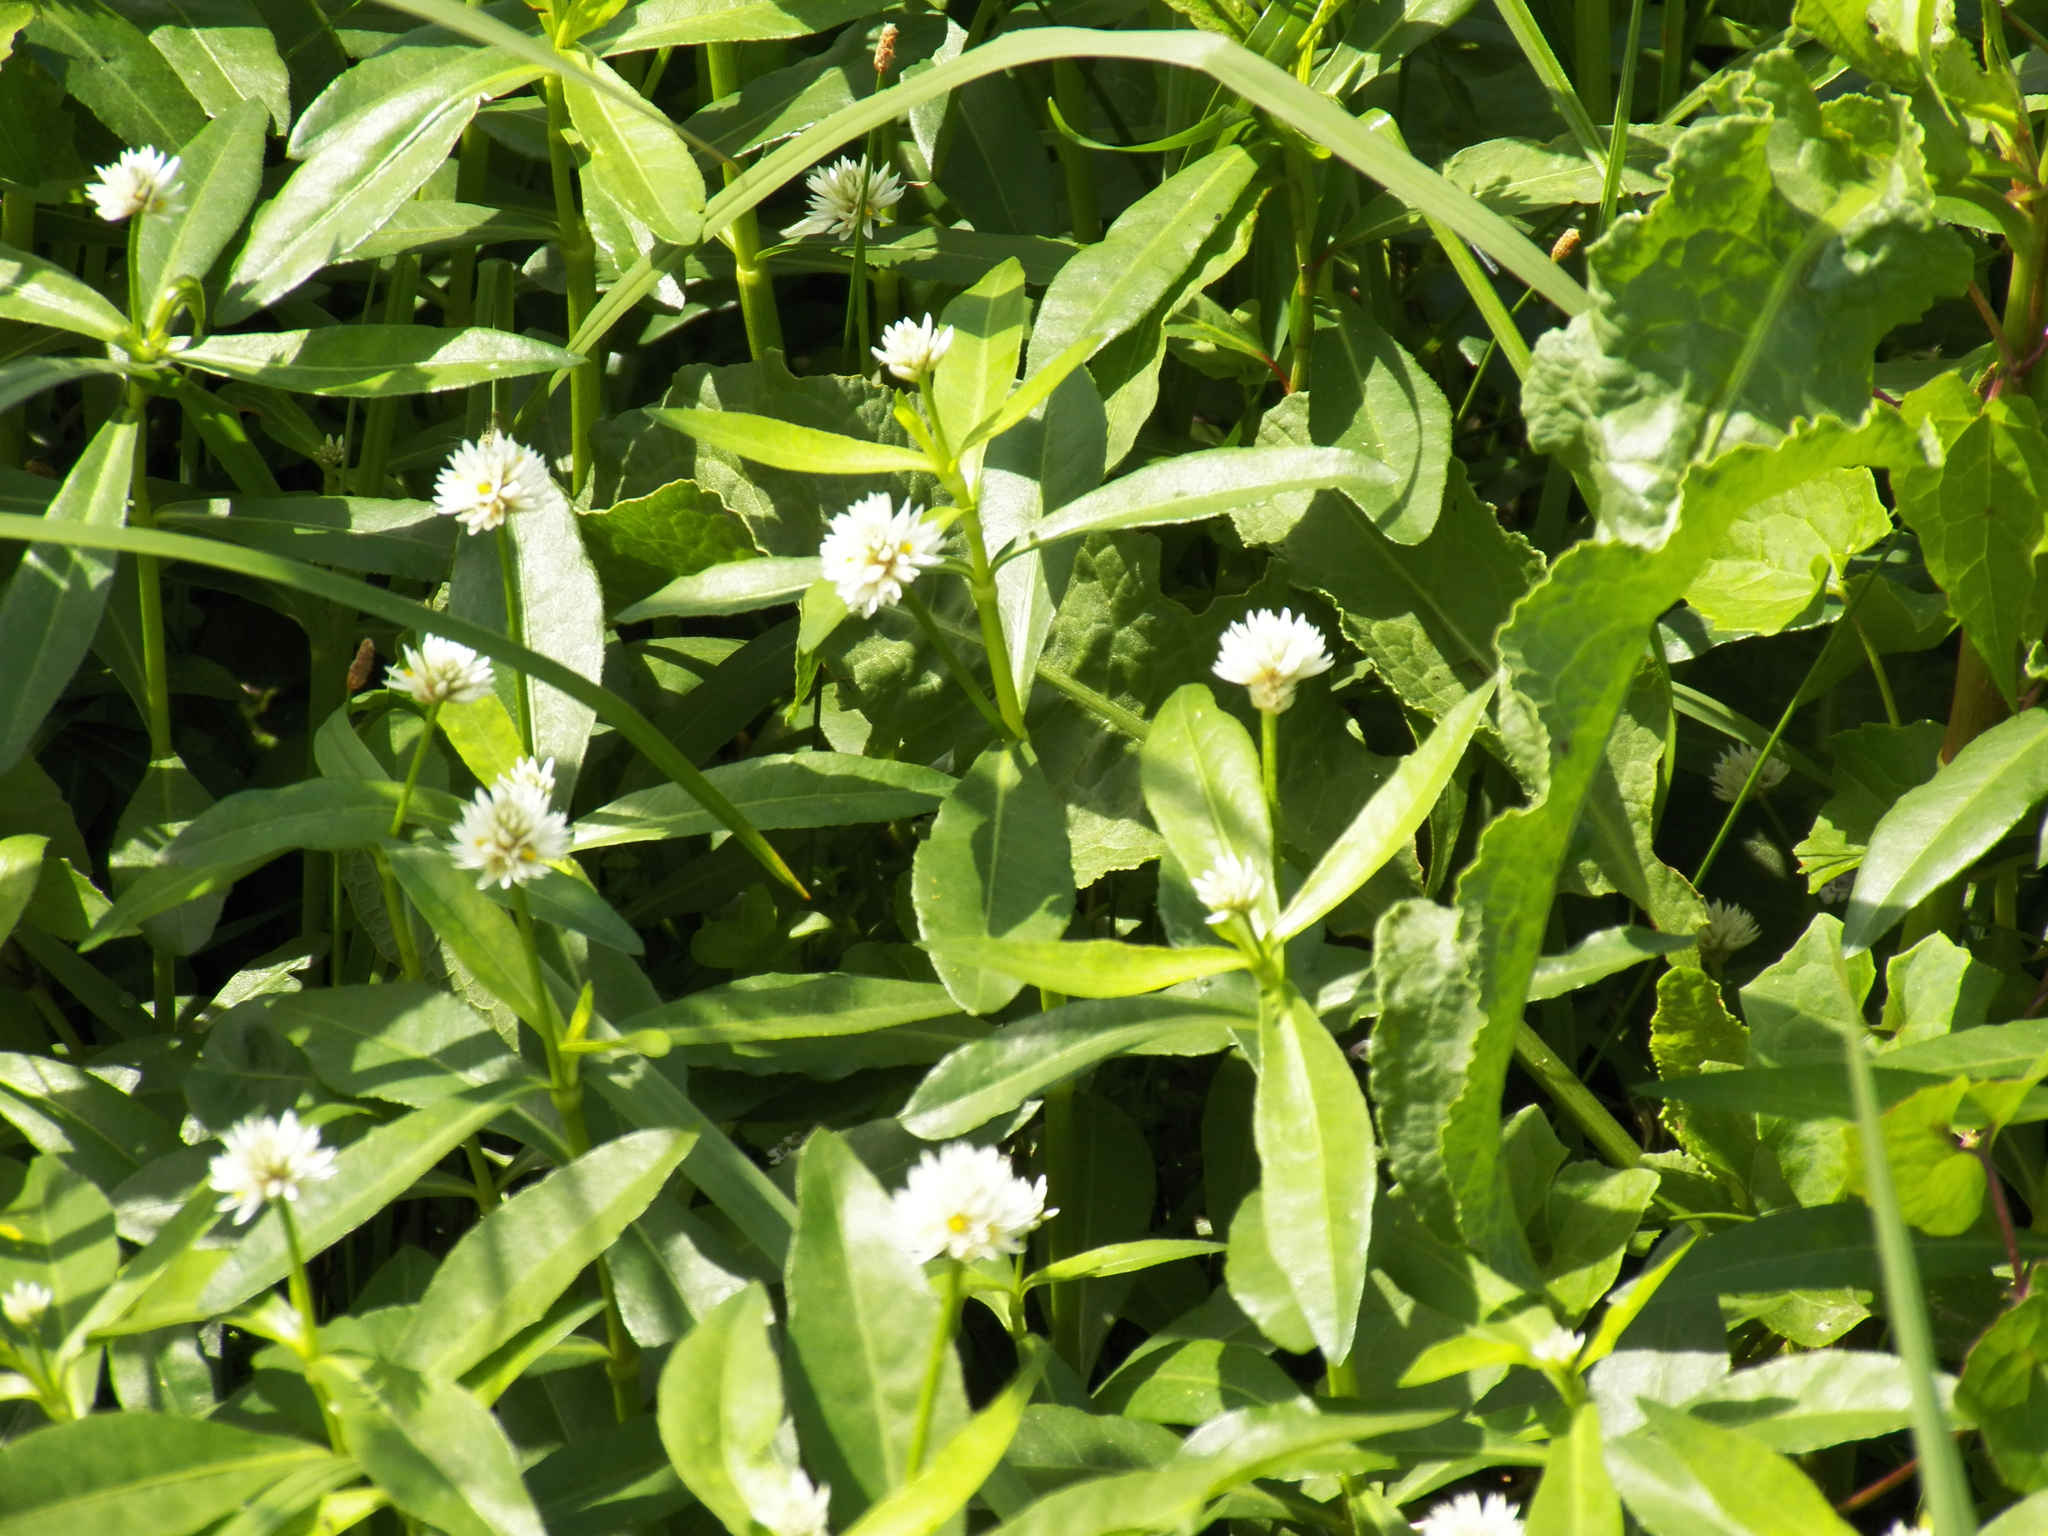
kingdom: Plantae
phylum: Tracheophyta
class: Magnoliopsida
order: Caryophyllales
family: Amaranthaceae
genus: Alternanthera
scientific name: Alternanthera philoxeroides
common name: Alligatorweed
